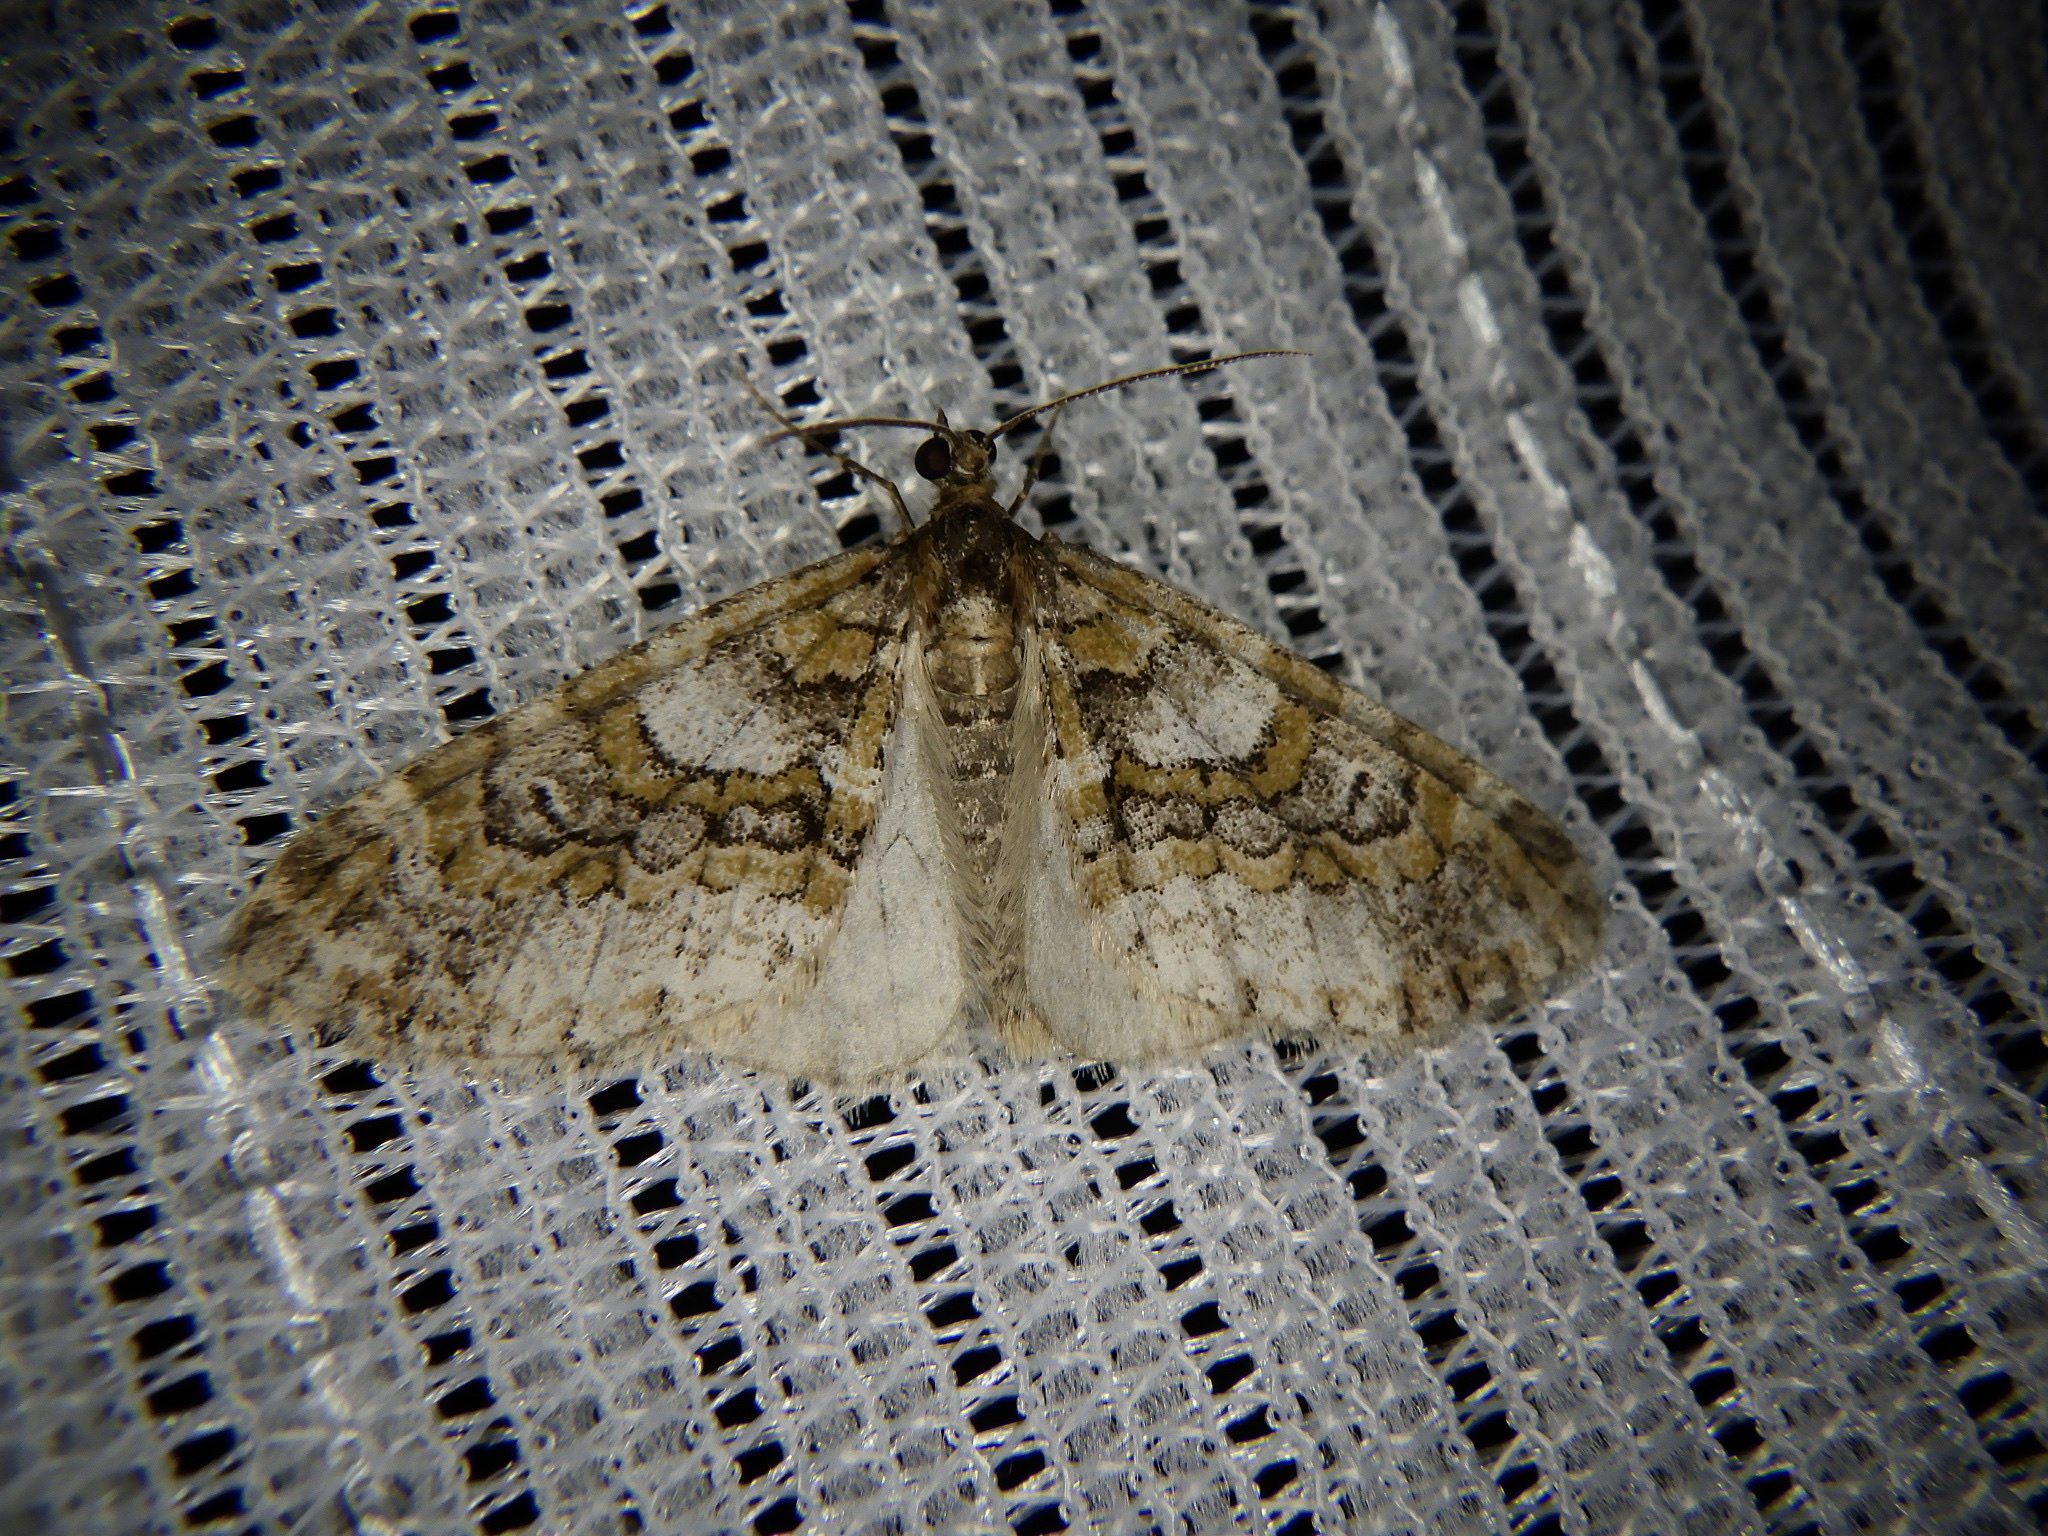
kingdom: Animalia
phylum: Arthropoda
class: Insecta
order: Lepidoptera
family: Geometridae
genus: Esakiopteryx
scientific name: Esakiopteryx volitans
